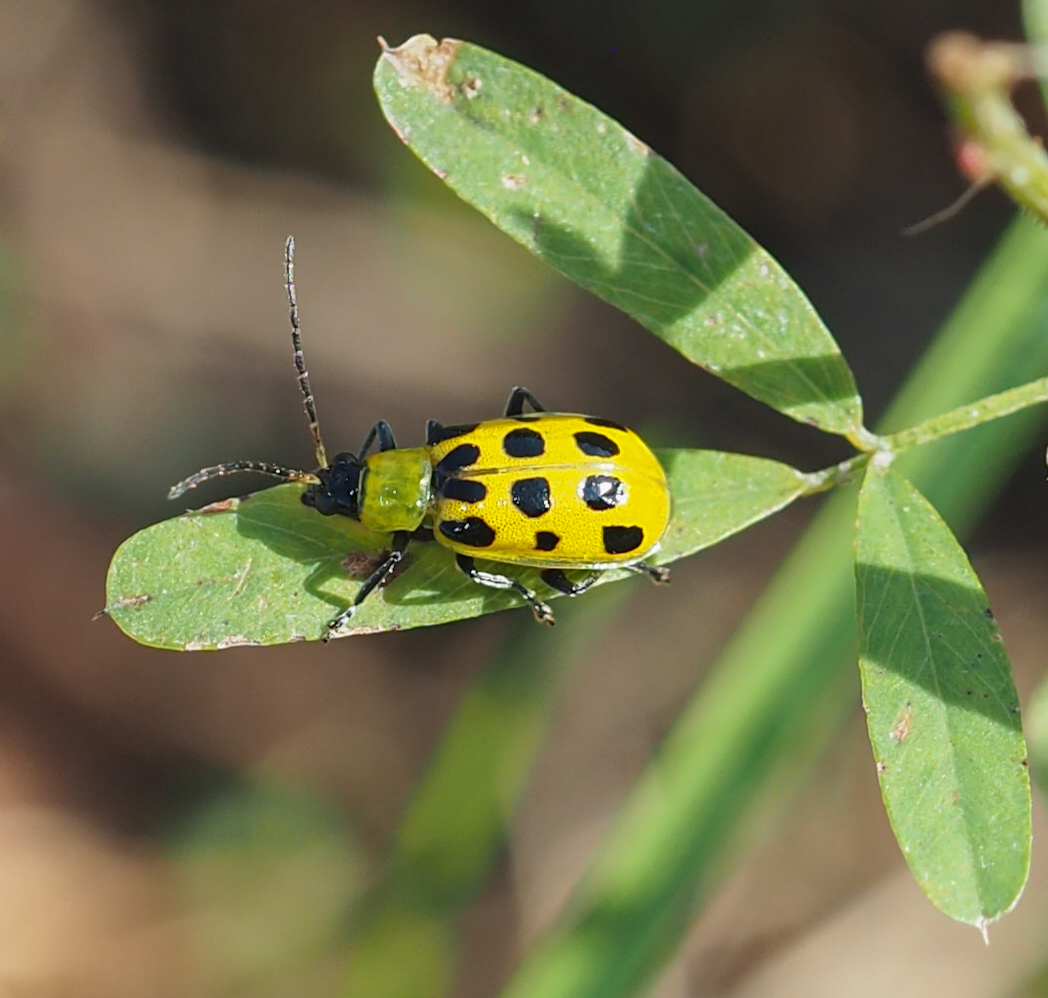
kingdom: Animalia
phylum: Arthropoda
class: Insecta
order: Coleoptera
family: Chrysomelidae
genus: Diabrotica
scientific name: Diabrotica undecimpunctata
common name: Spotted cucumber beetle
